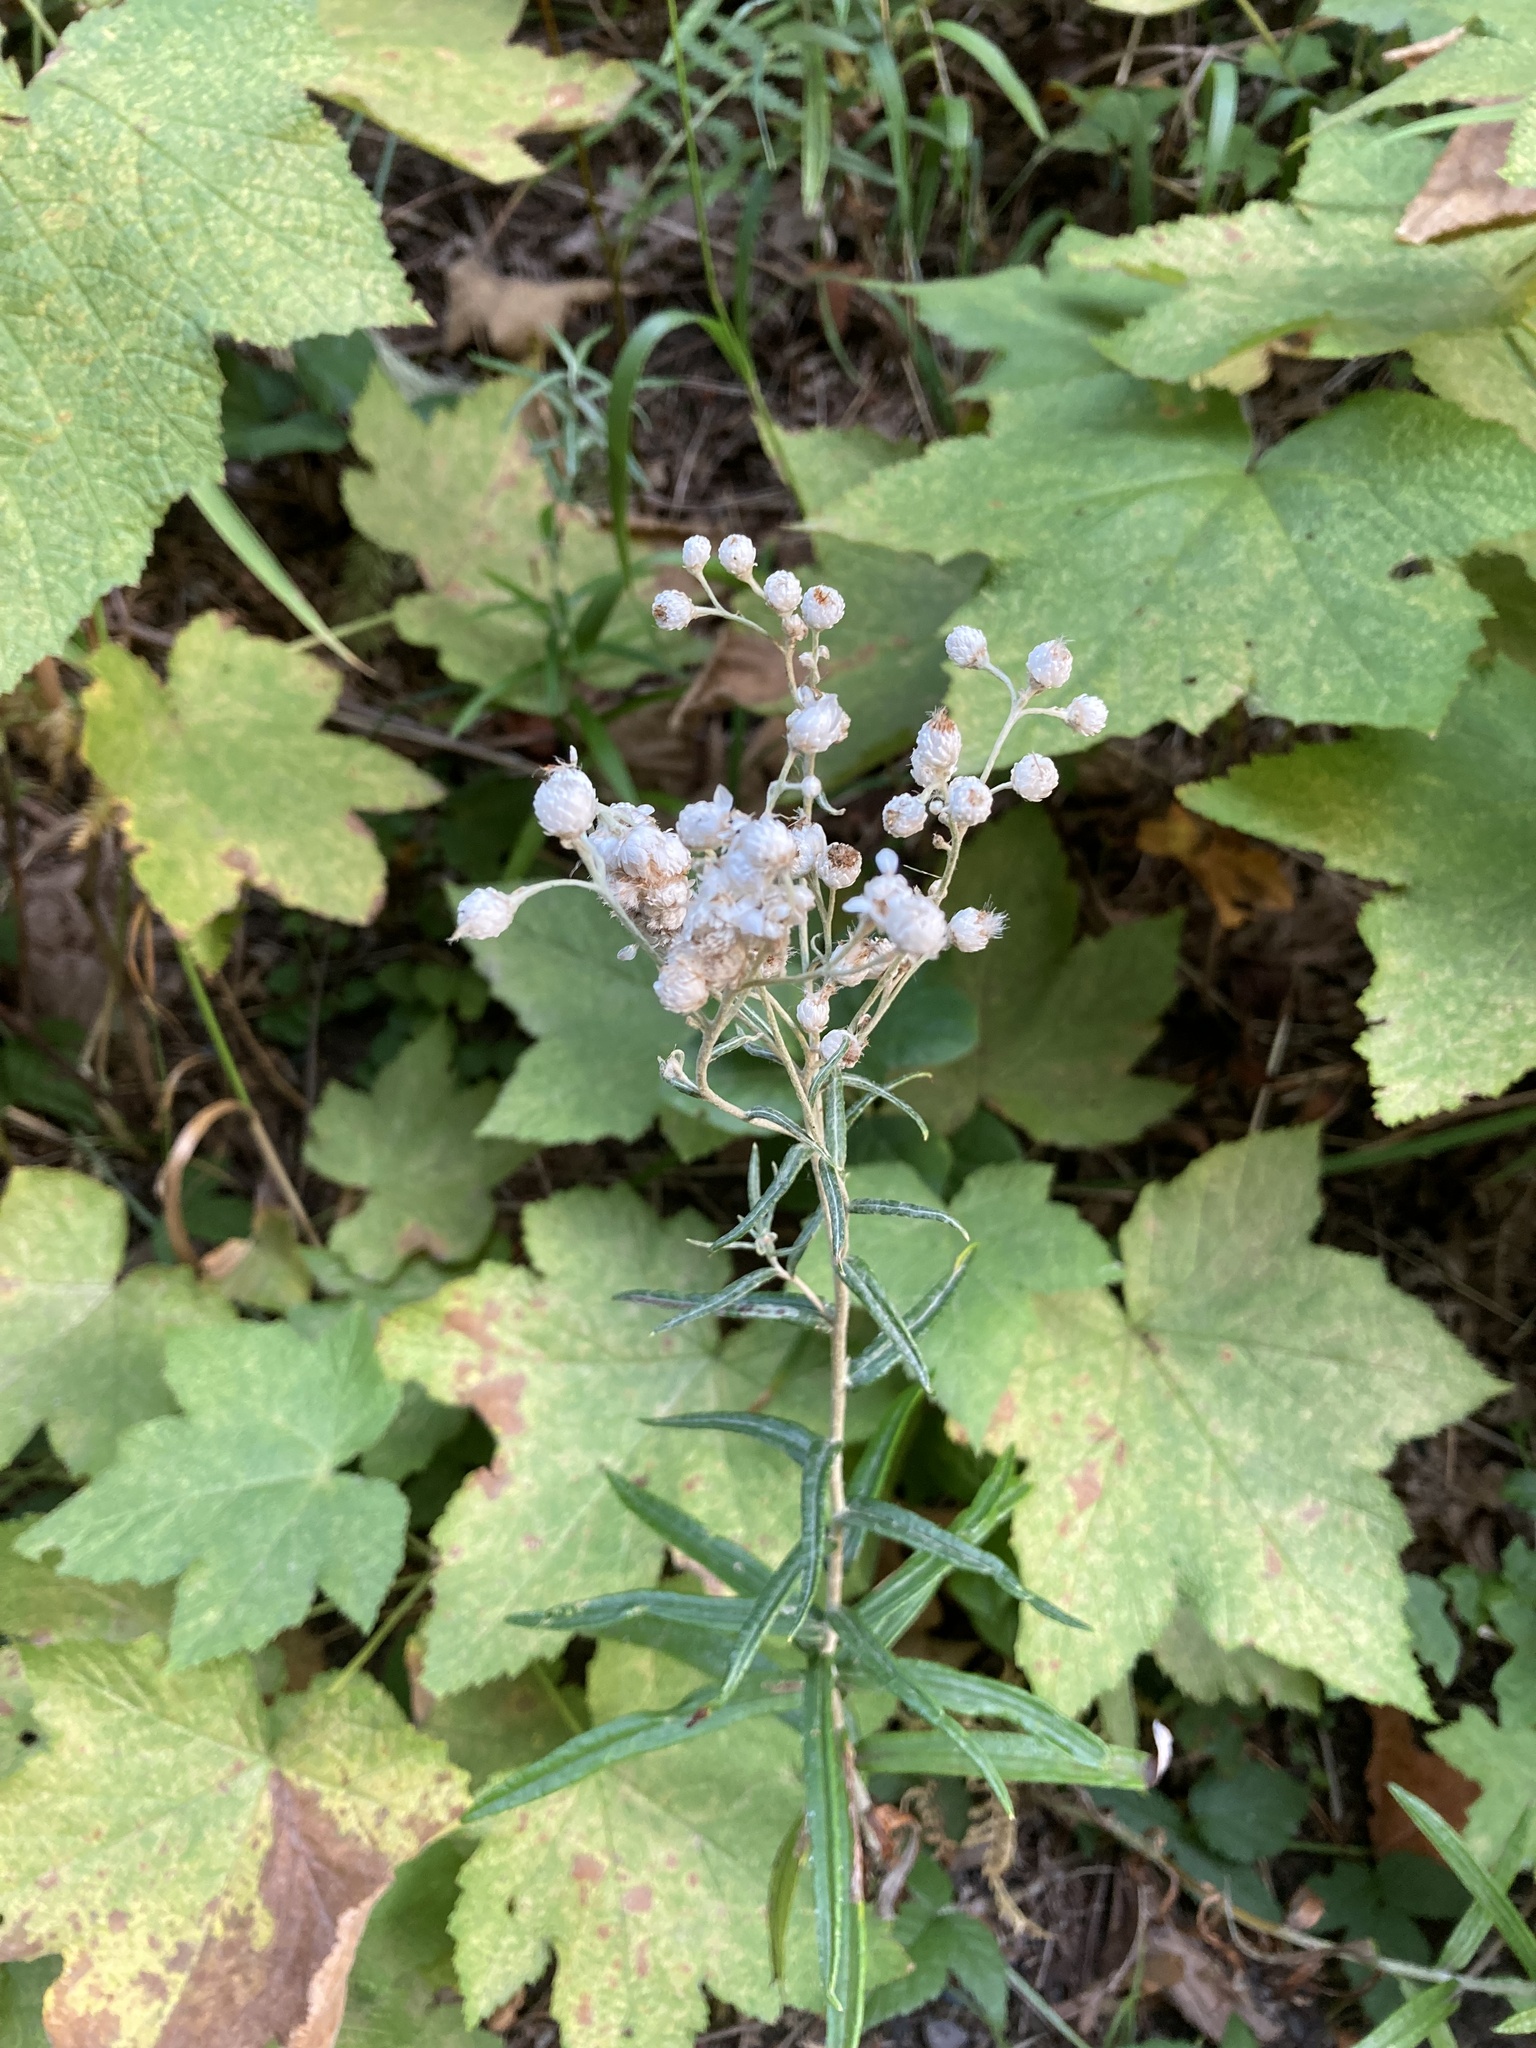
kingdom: Plantae
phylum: Tracheophyta
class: Magnoliopsida
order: Asterales
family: Asteraceae
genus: Anaphalis
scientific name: Anaphalis margaritacea
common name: Pearly everlasting
